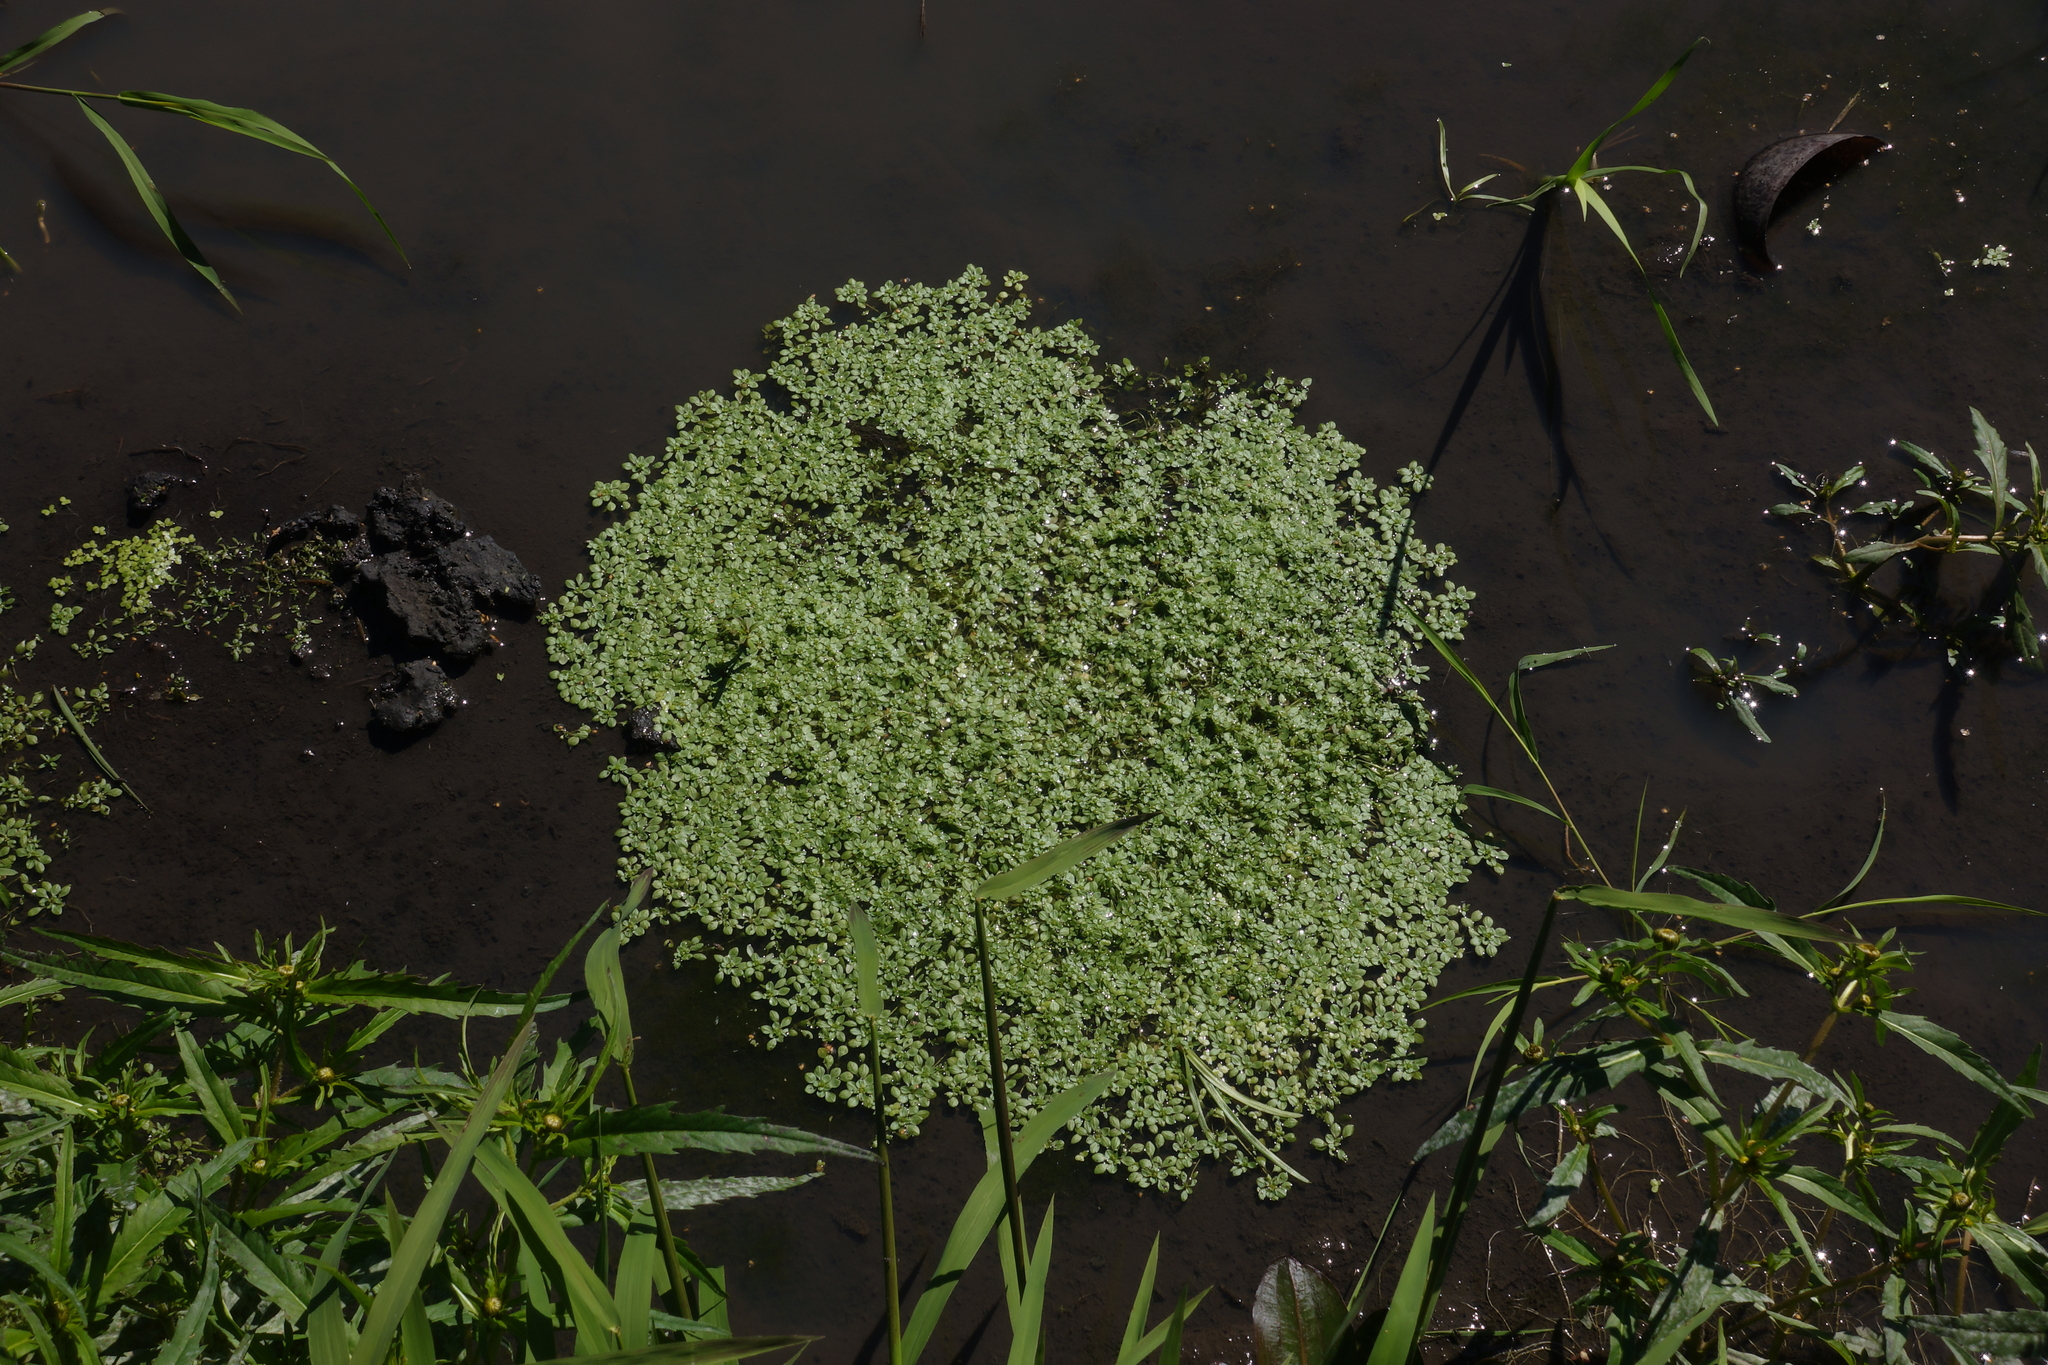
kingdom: Plantae
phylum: Tracheophyta
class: Magnoliopsida
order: Lamiales
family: Plantaginaceae
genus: Callitriche
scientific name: Callitriche
